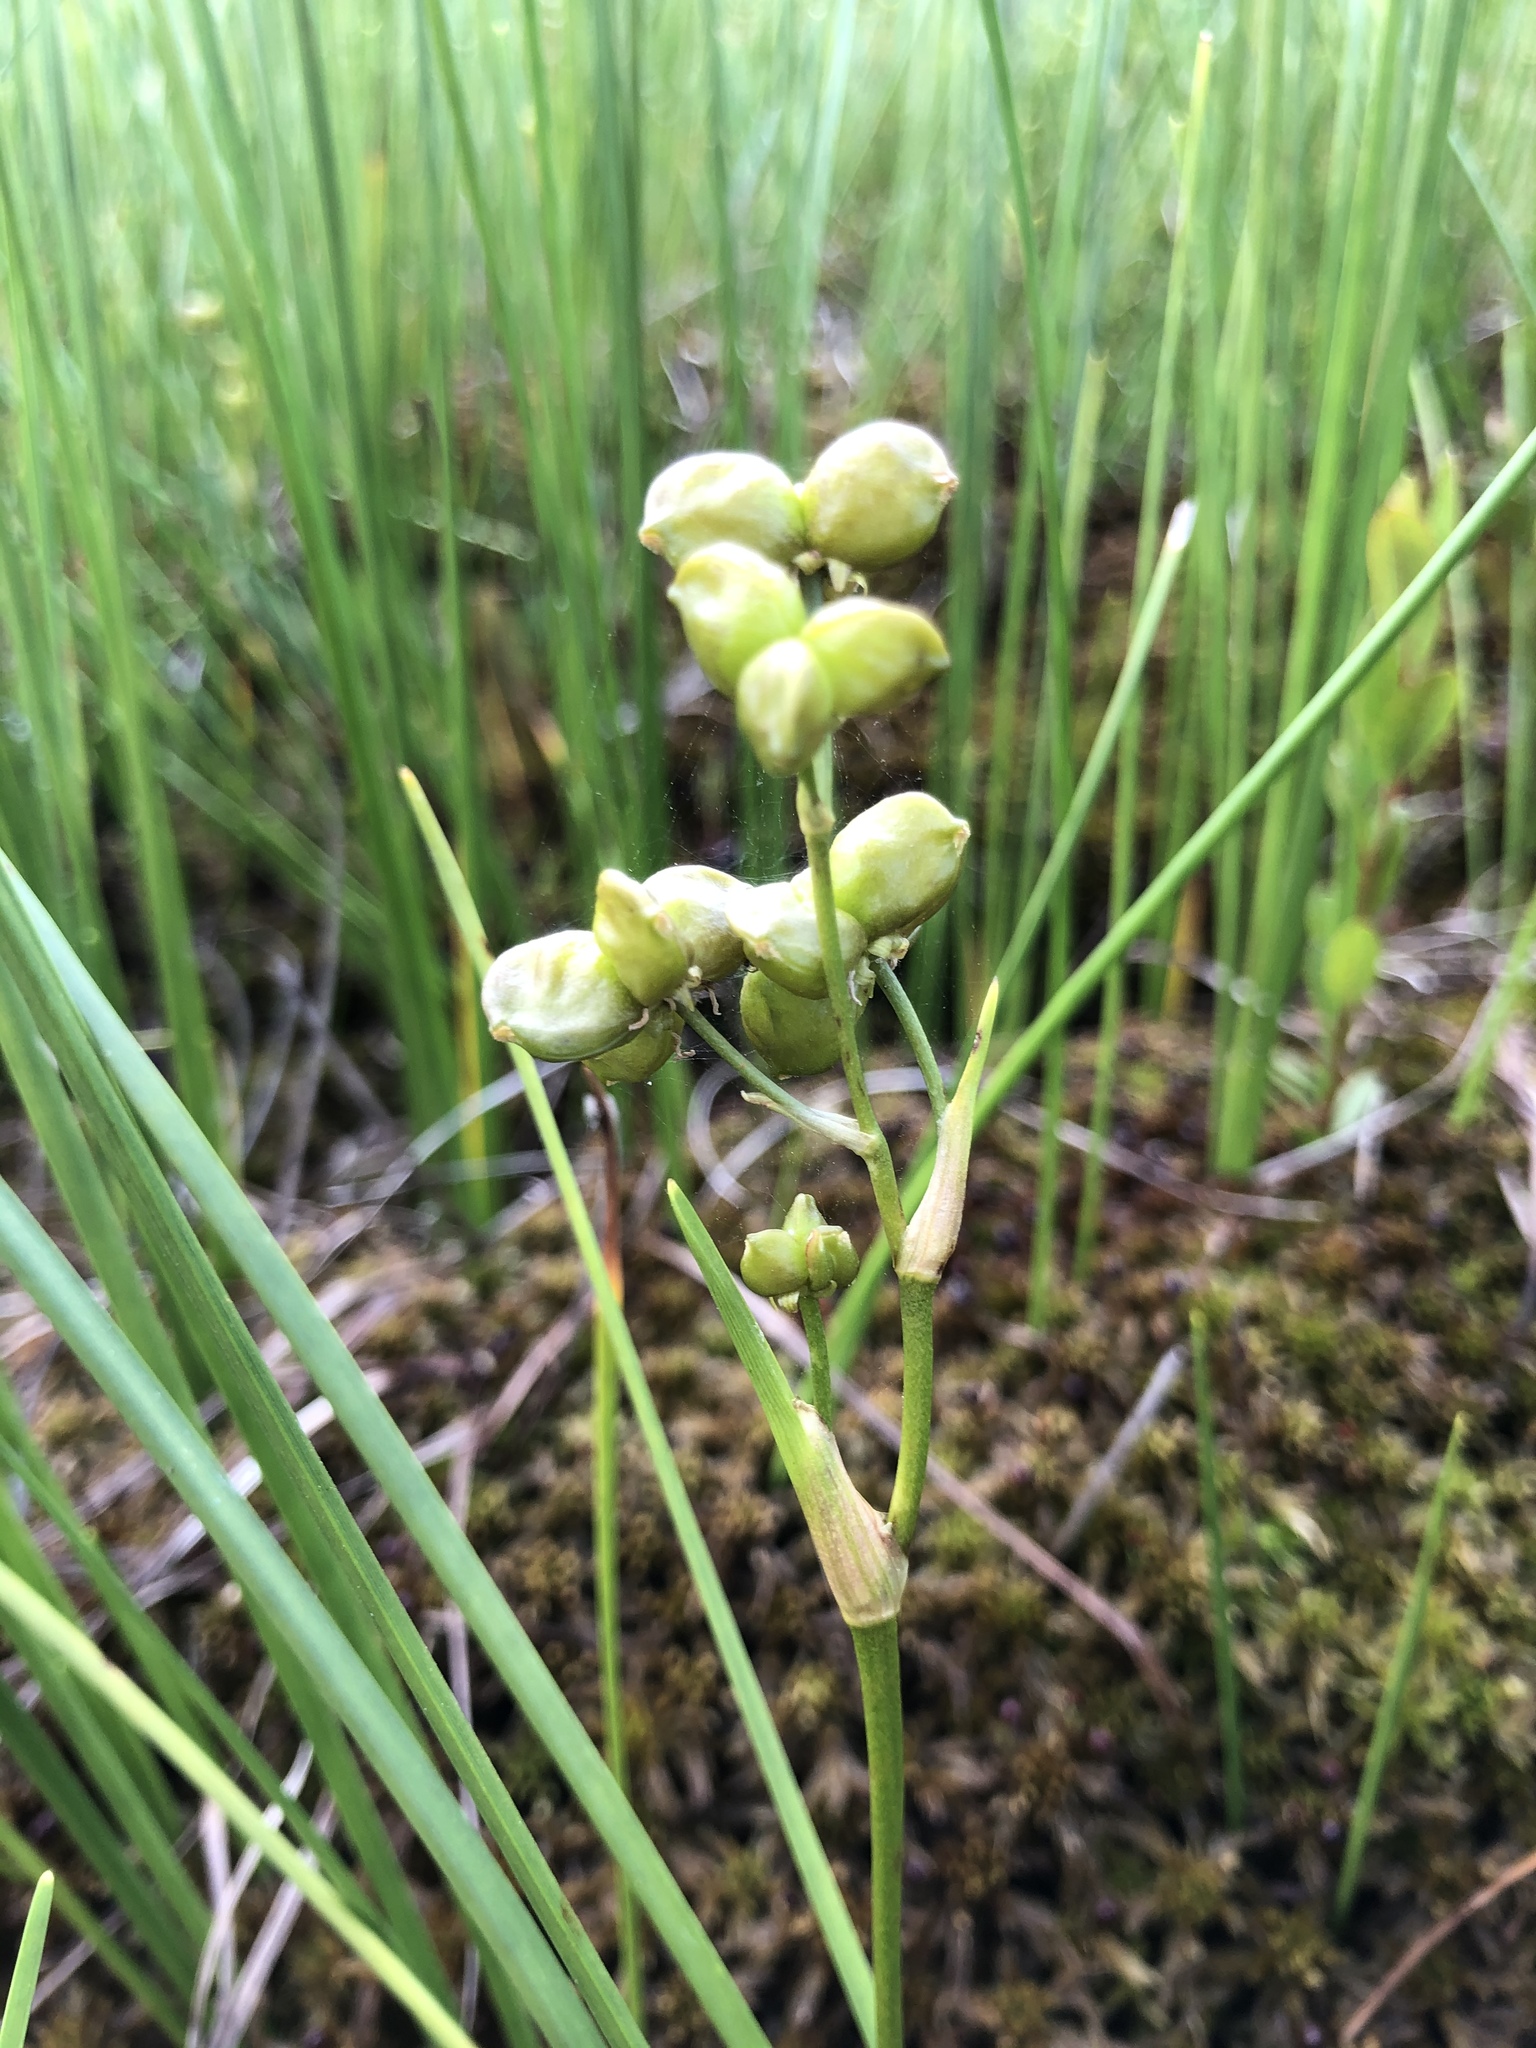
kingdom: Plantae
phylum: Tracheophyta
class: Liliopsida
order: Alismatales
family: Scheuchzeriaceae
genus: Scheuchzeria
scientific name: Scheuchzeria palustris
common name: Rannoch-rush
